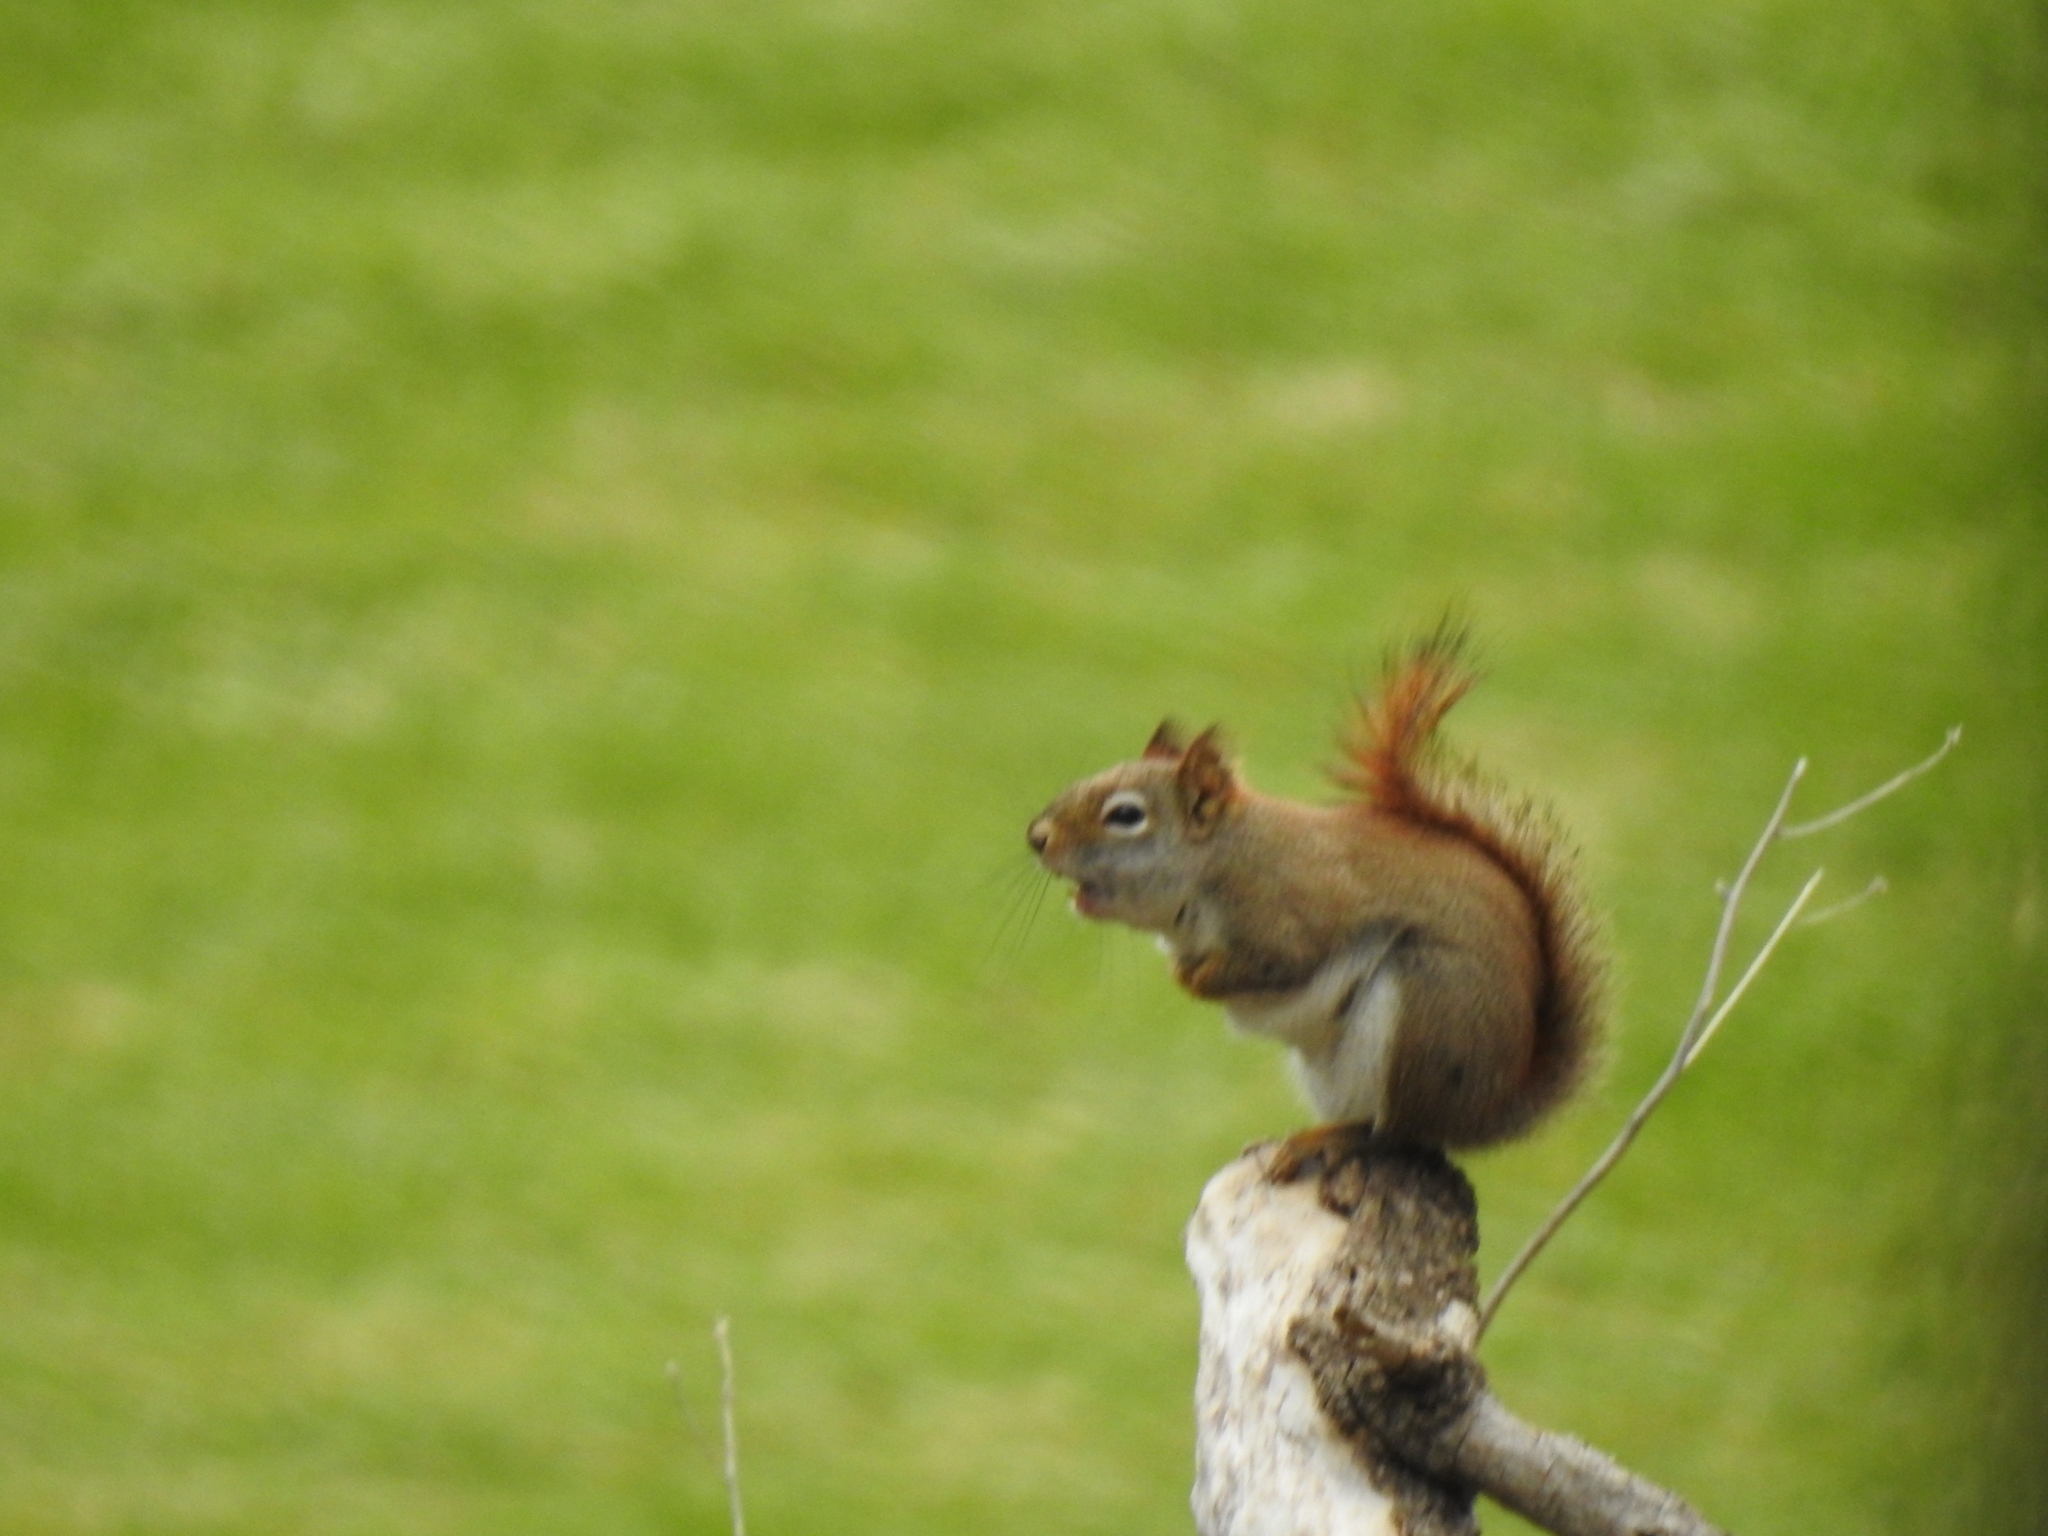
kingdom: Animalia
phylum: Chordata
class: Mammalia
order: Rodentia
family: Sciuridae
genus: Tamiasciurus
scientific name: Tamiasciurus hudsonicus
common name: Red squirrel
